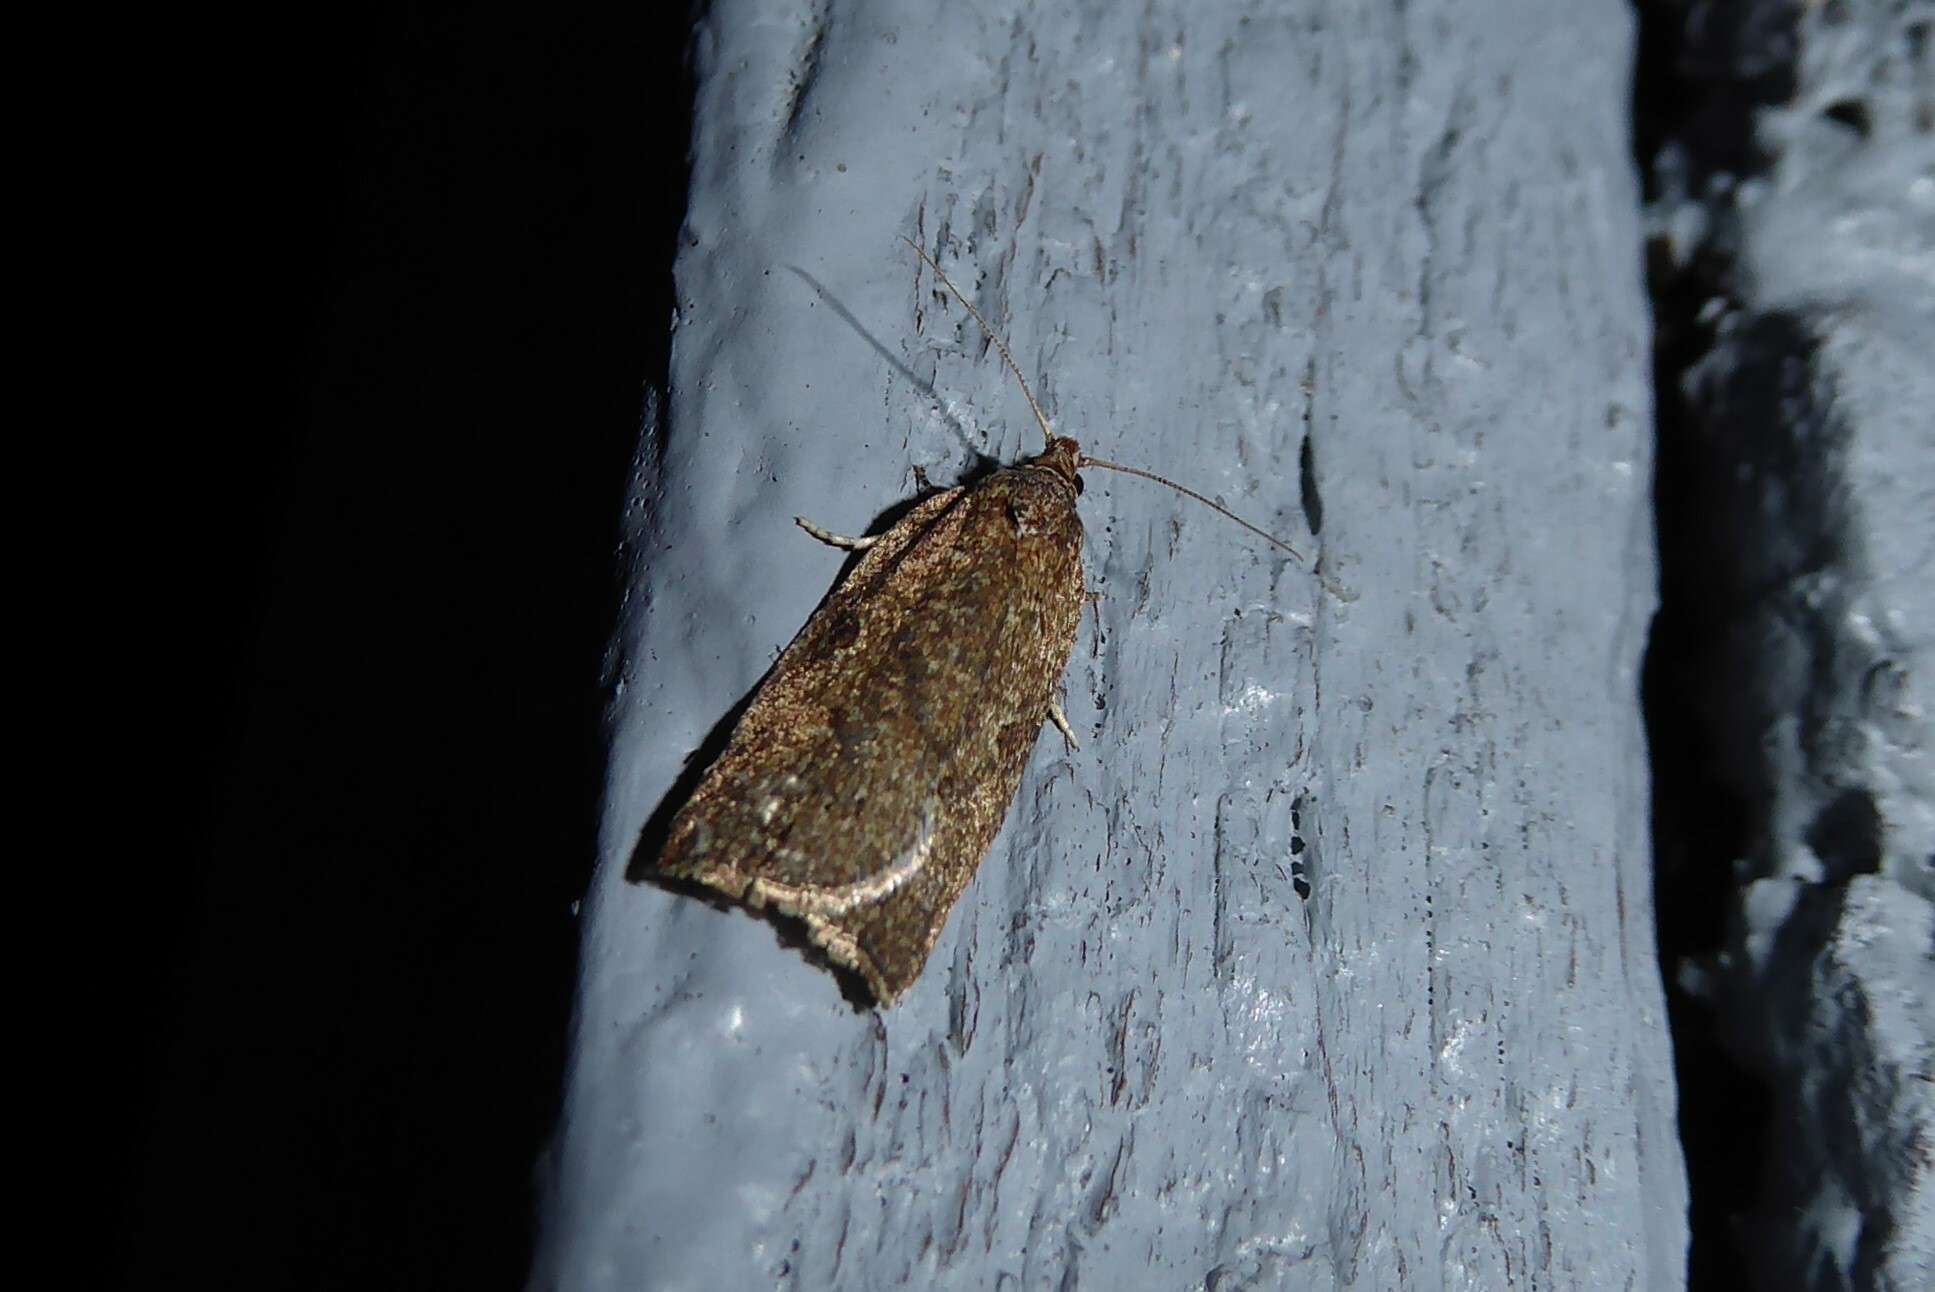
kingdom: Animalia
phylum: Arthropoda
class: Insecta
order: Lepidoptera
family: Tortricidae
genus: Capua
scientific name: Capua semiferana
